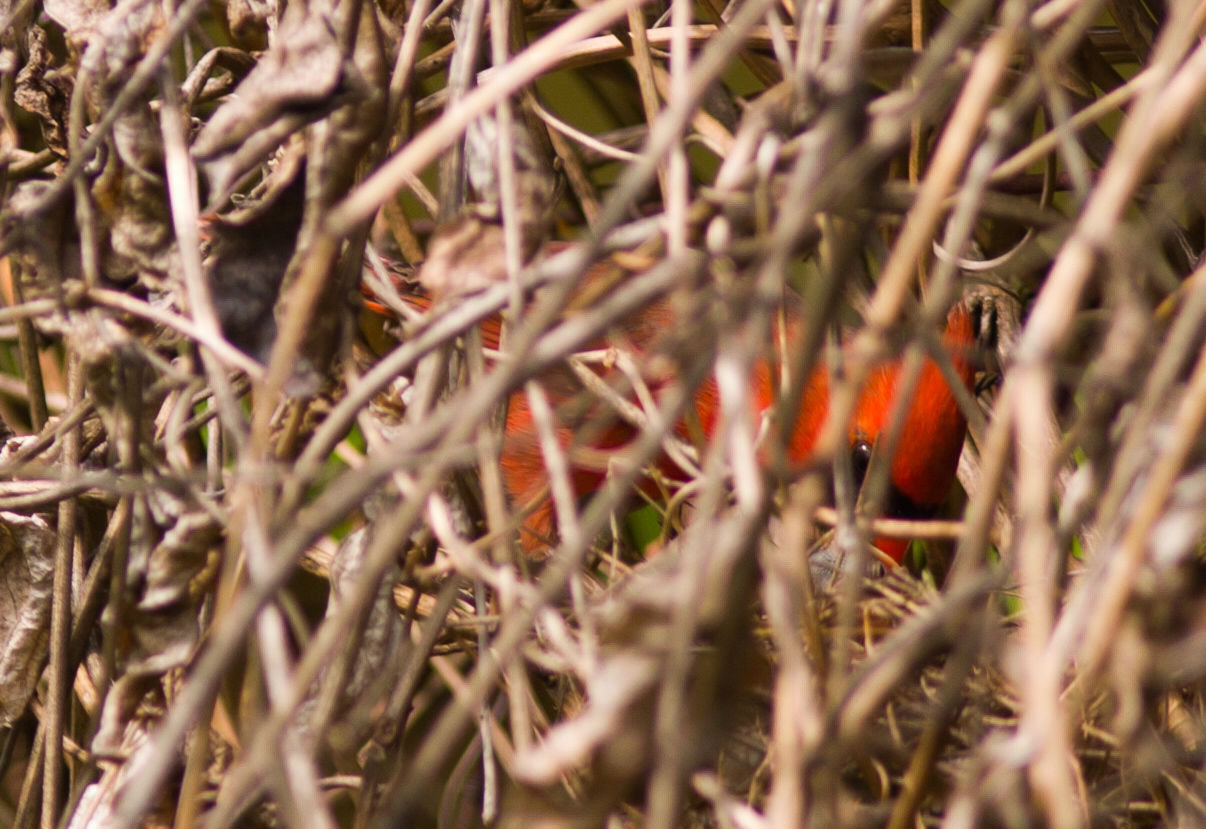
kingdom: Animalia
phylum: Chordata
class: Aves
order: Passeriformes
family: Cardinalidae
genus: Cardinalis
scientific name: Cardinalis cardinalis
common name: Northern cardinal
